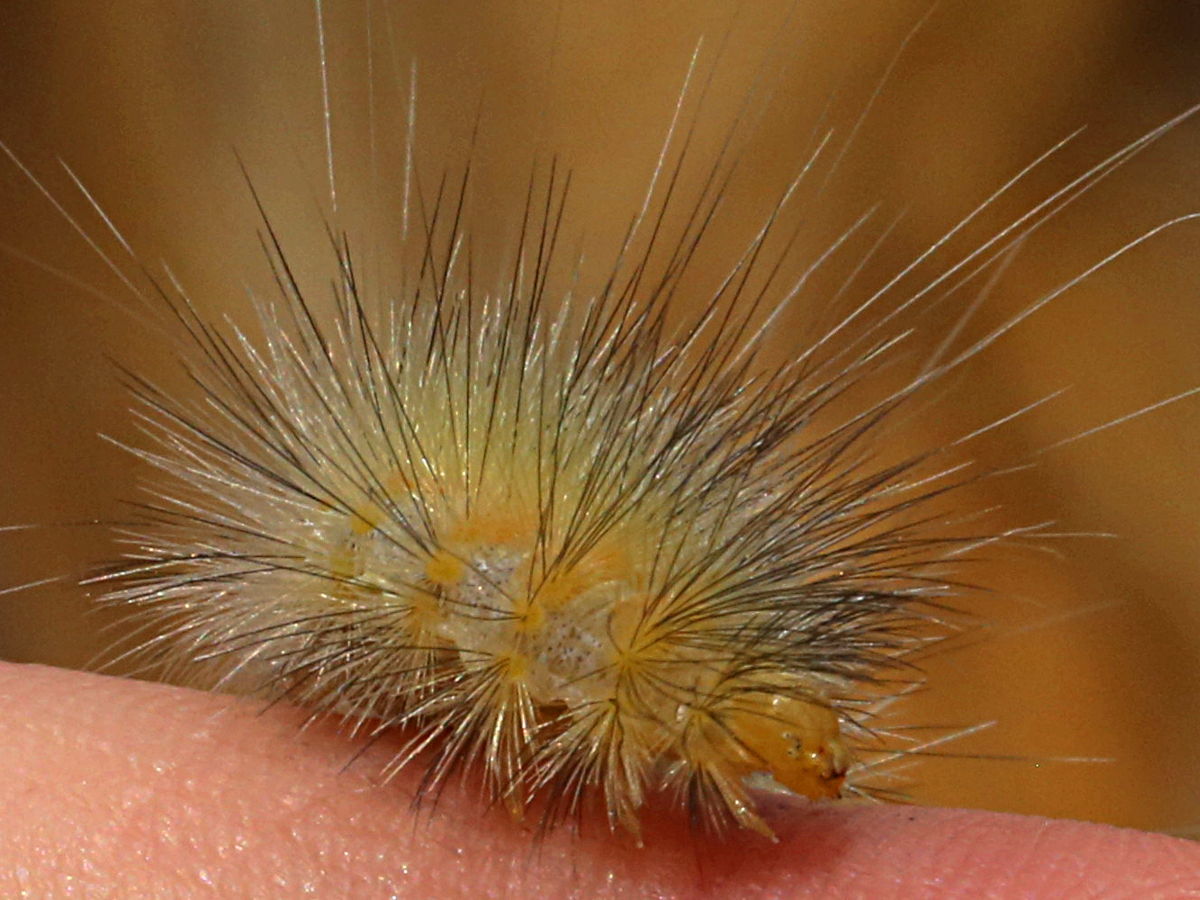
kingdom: Animalia
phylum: Arthropoda
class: Insecta
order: Lepidoptera
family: Erebidae
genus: Spilosoma
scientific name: Spilosoma virginica
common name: Virginia tiger moth
